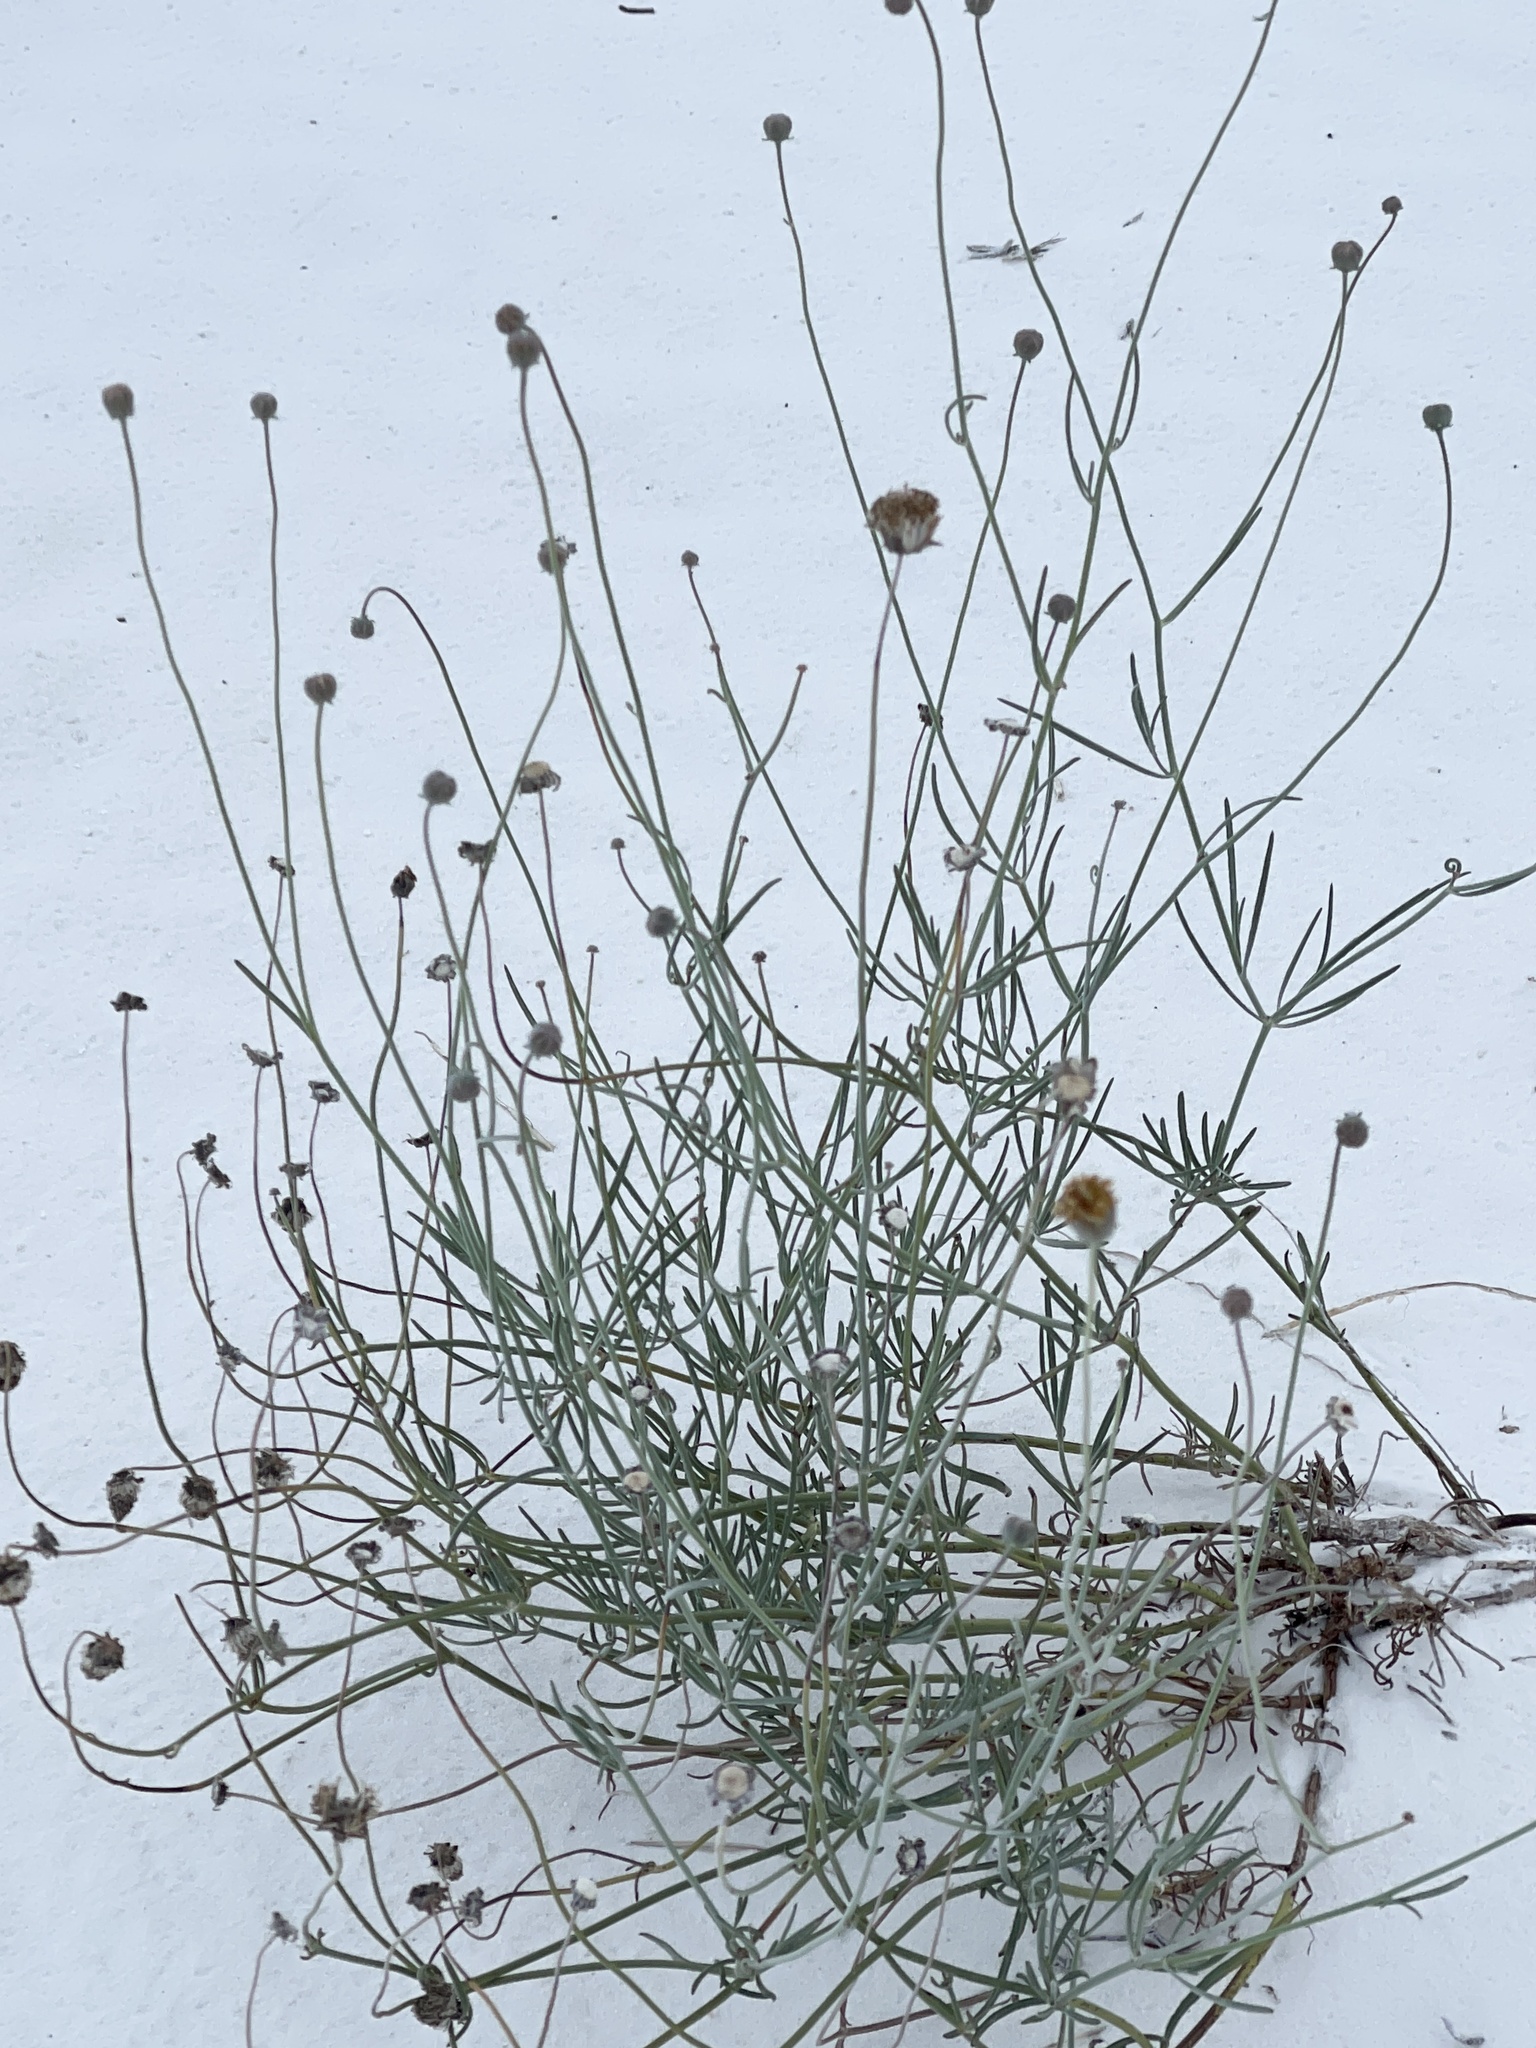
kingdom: Plantae
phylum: Tracheophyta
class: Magnoliopsida
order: Asterales
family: Asteraceae
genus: Thelesperma
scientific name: Thelesperma megapotamicum
